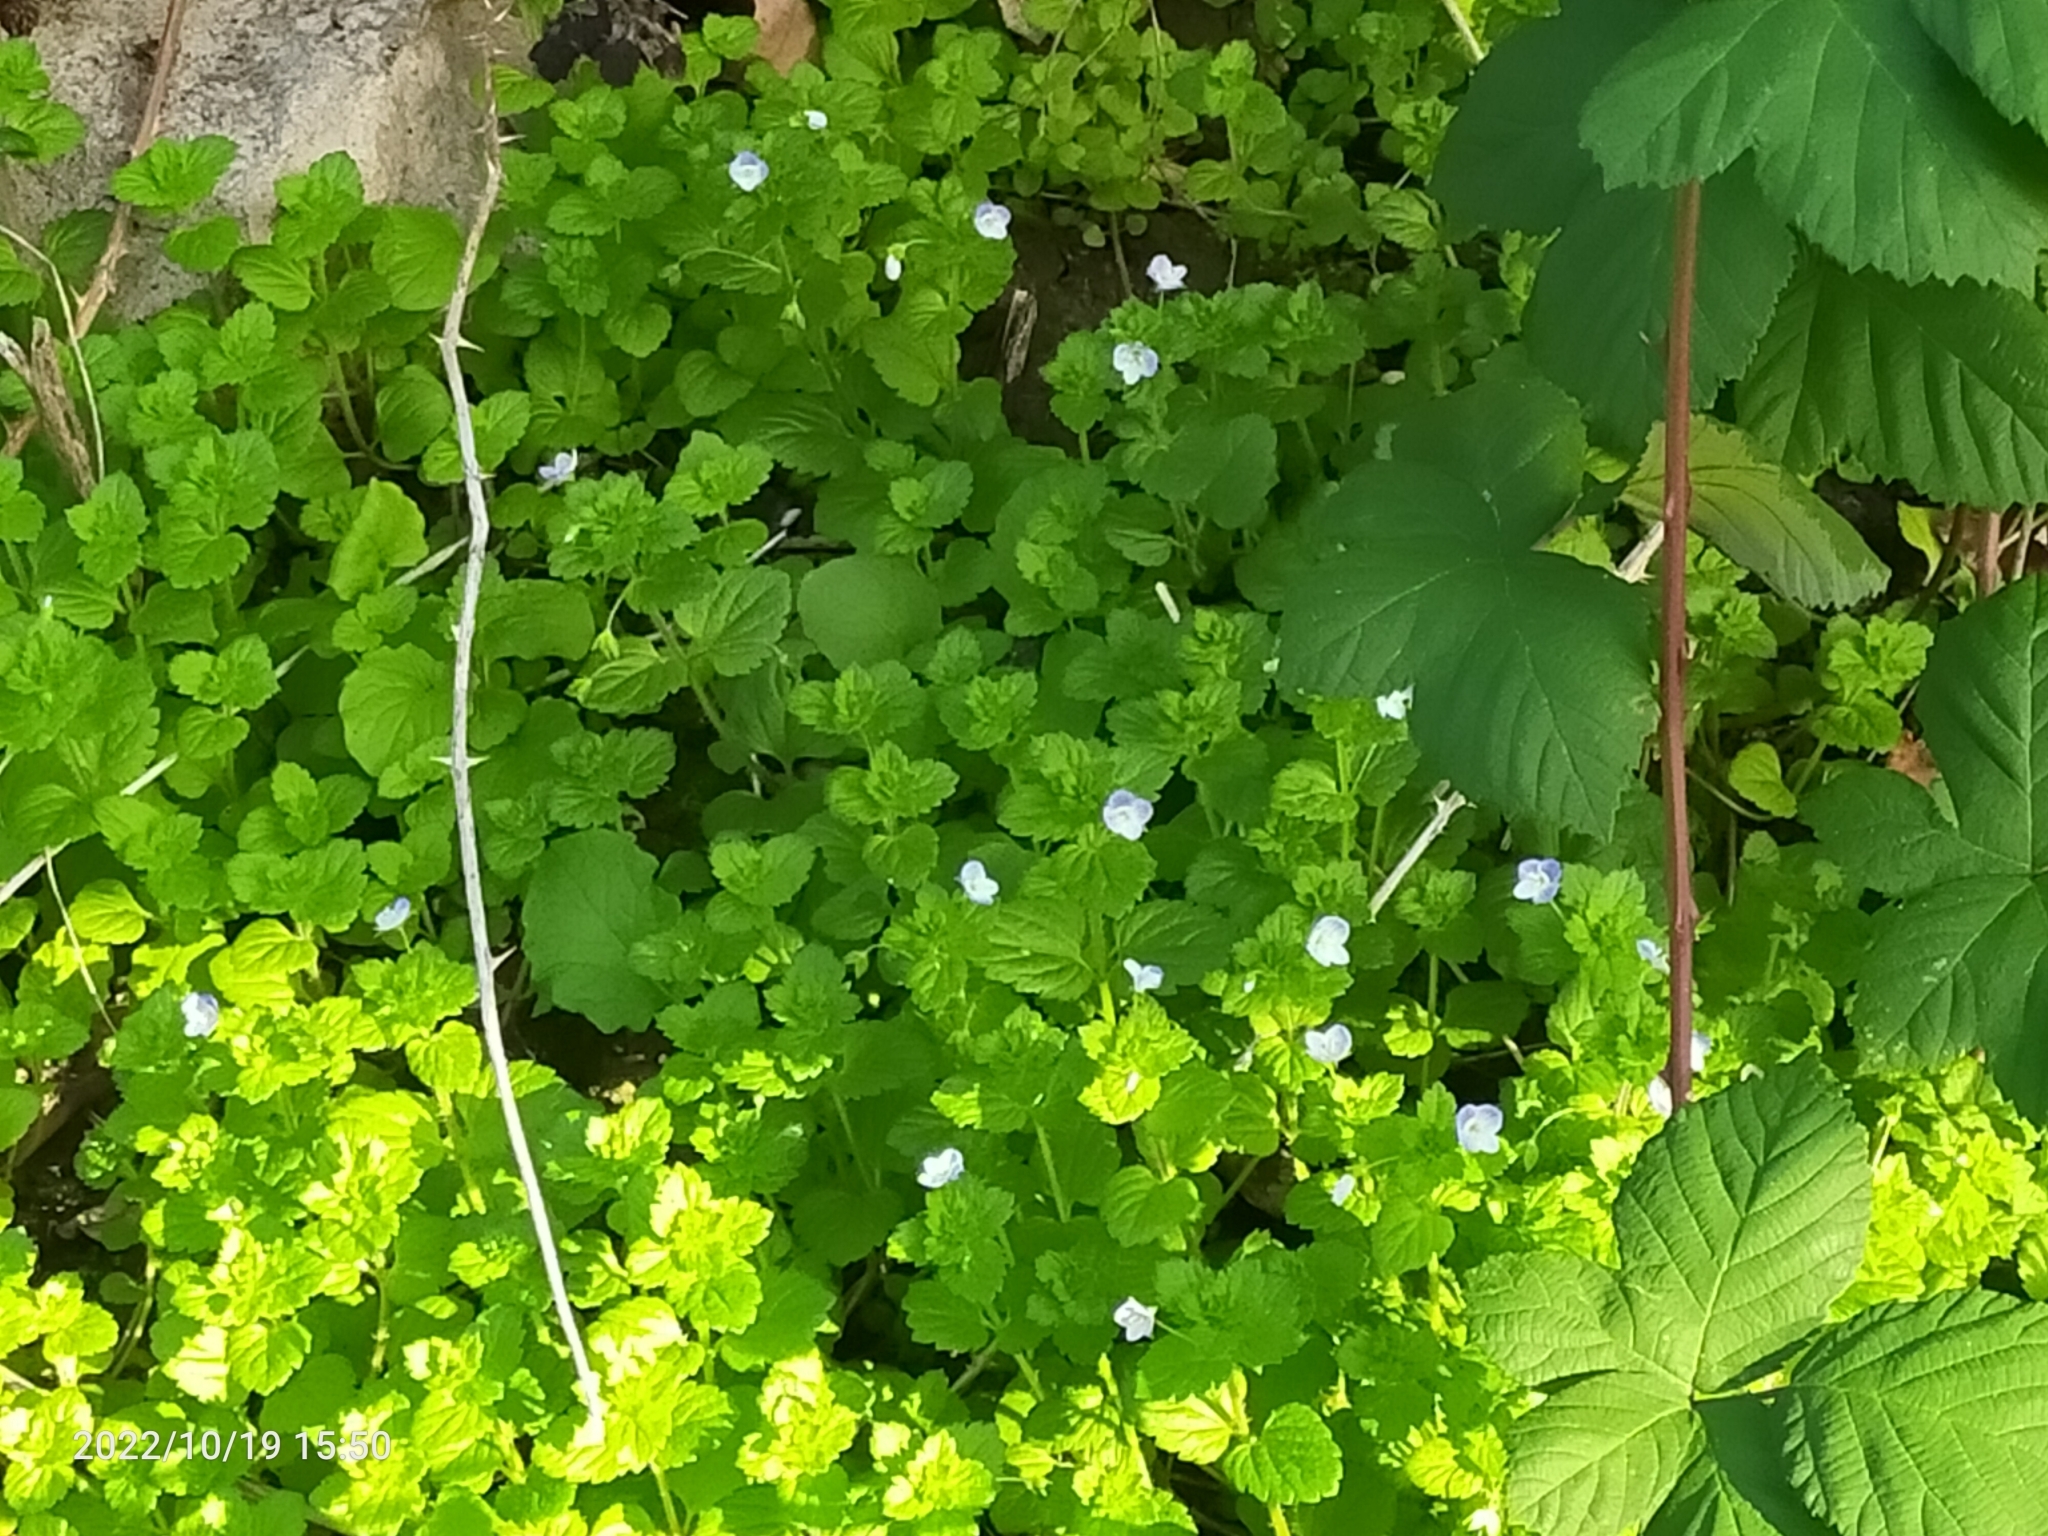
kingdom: Plantae
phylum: Tracheophyta
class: Magnoliopsida
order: Lamiales
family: Plantaginaceae
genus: Veronica
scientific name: Veronica persica
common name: Common field-speedwell
